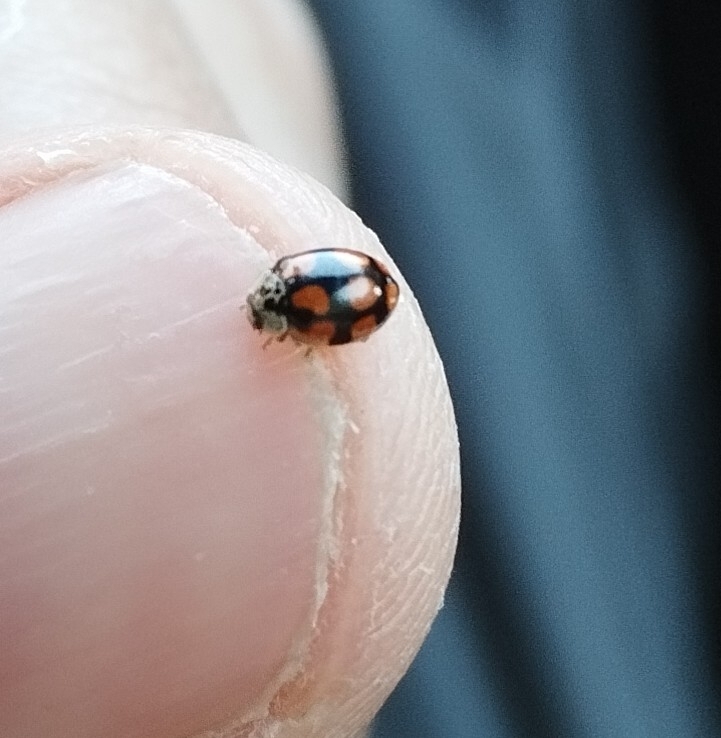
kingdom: Animalia
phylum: Arthropoda
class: Insecta
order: Coleoptera
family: Coccinellidae
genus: Adalia
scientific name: Adalia decempunctata
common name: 10-spot ladybird
